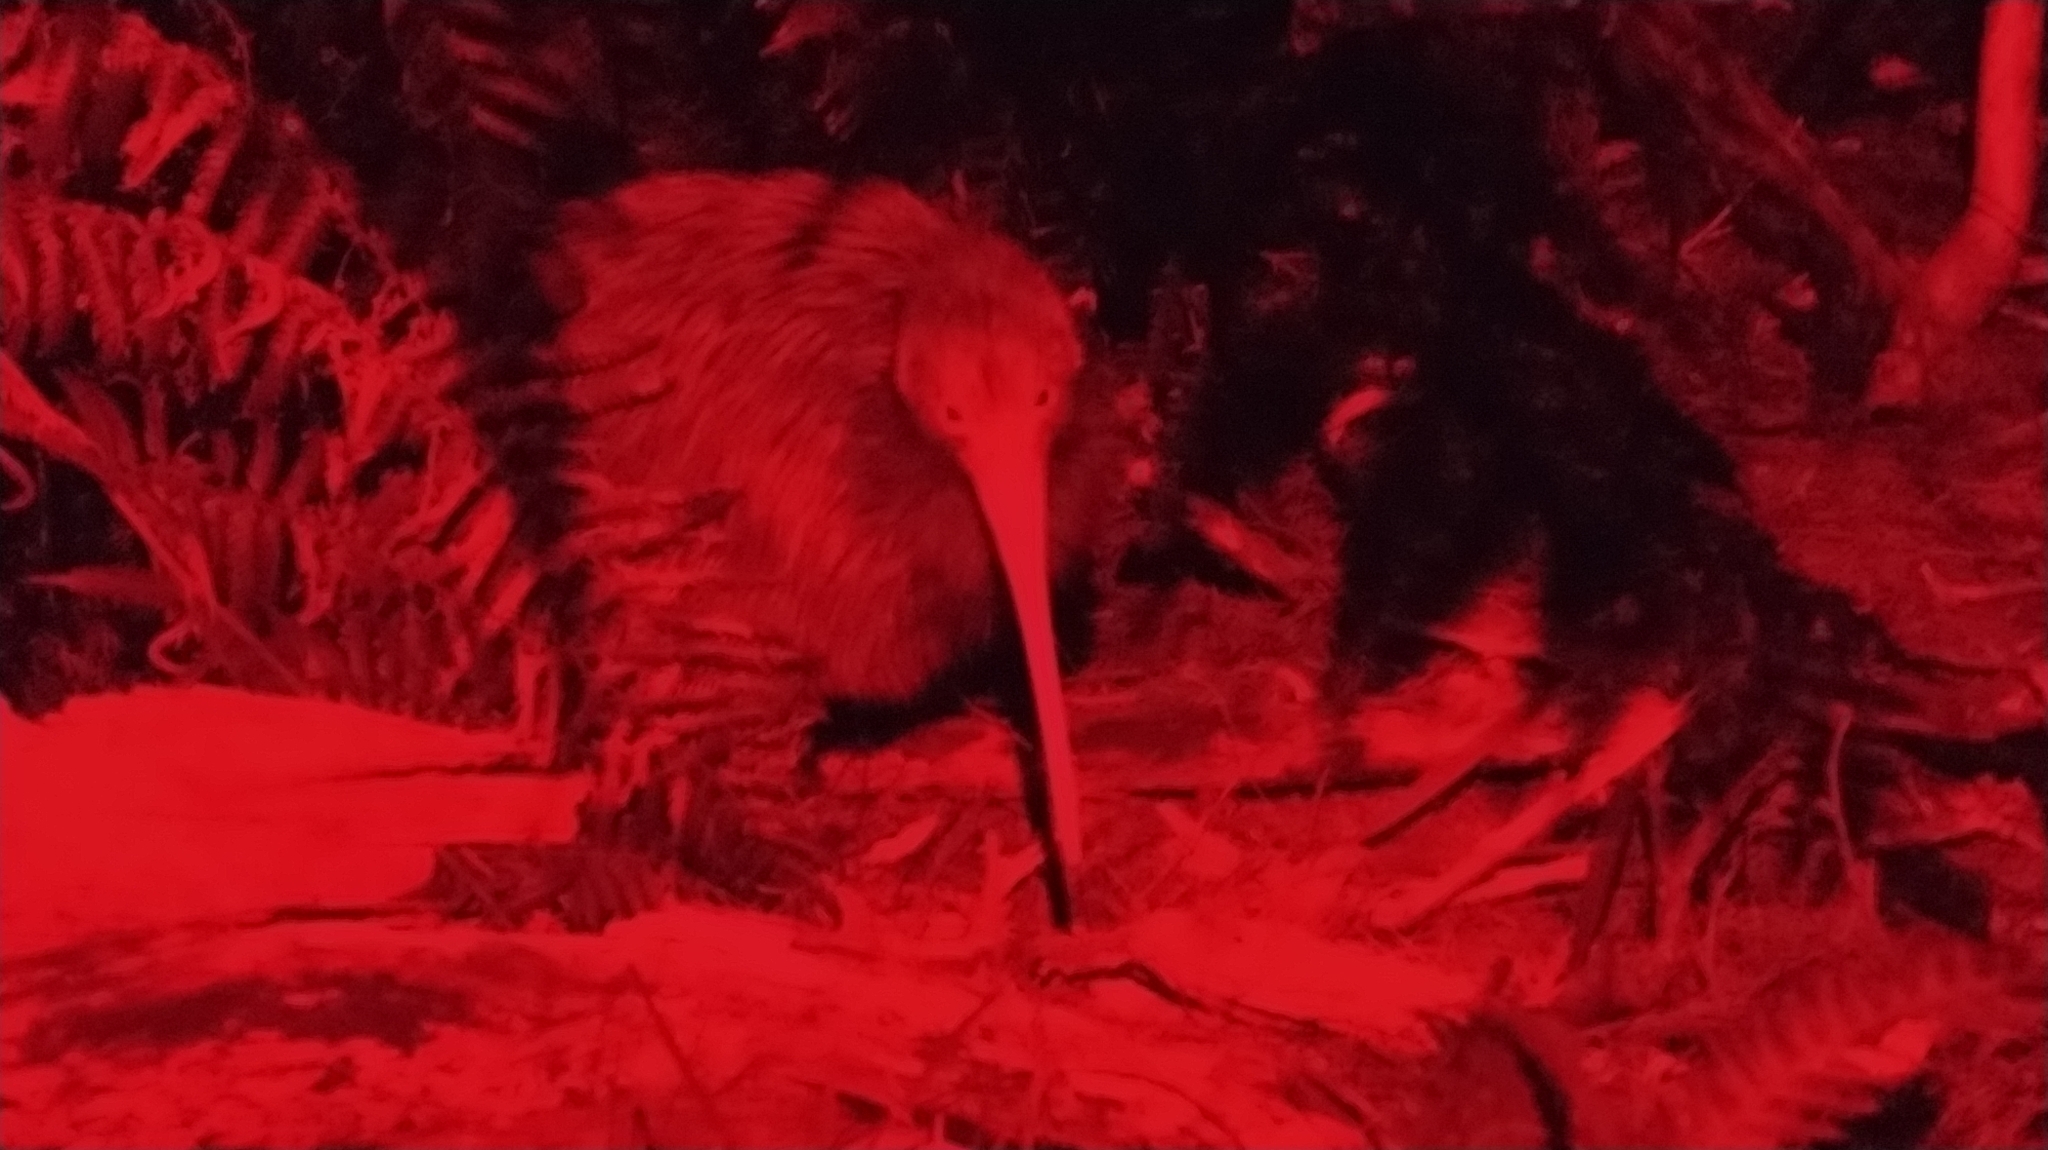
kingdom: Animalia
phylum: Chordata
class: Aves
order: Apterygiformes
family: Apterygidae
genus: Apteryx
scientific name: Apteryx mantelli
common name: North island brown kiwi
